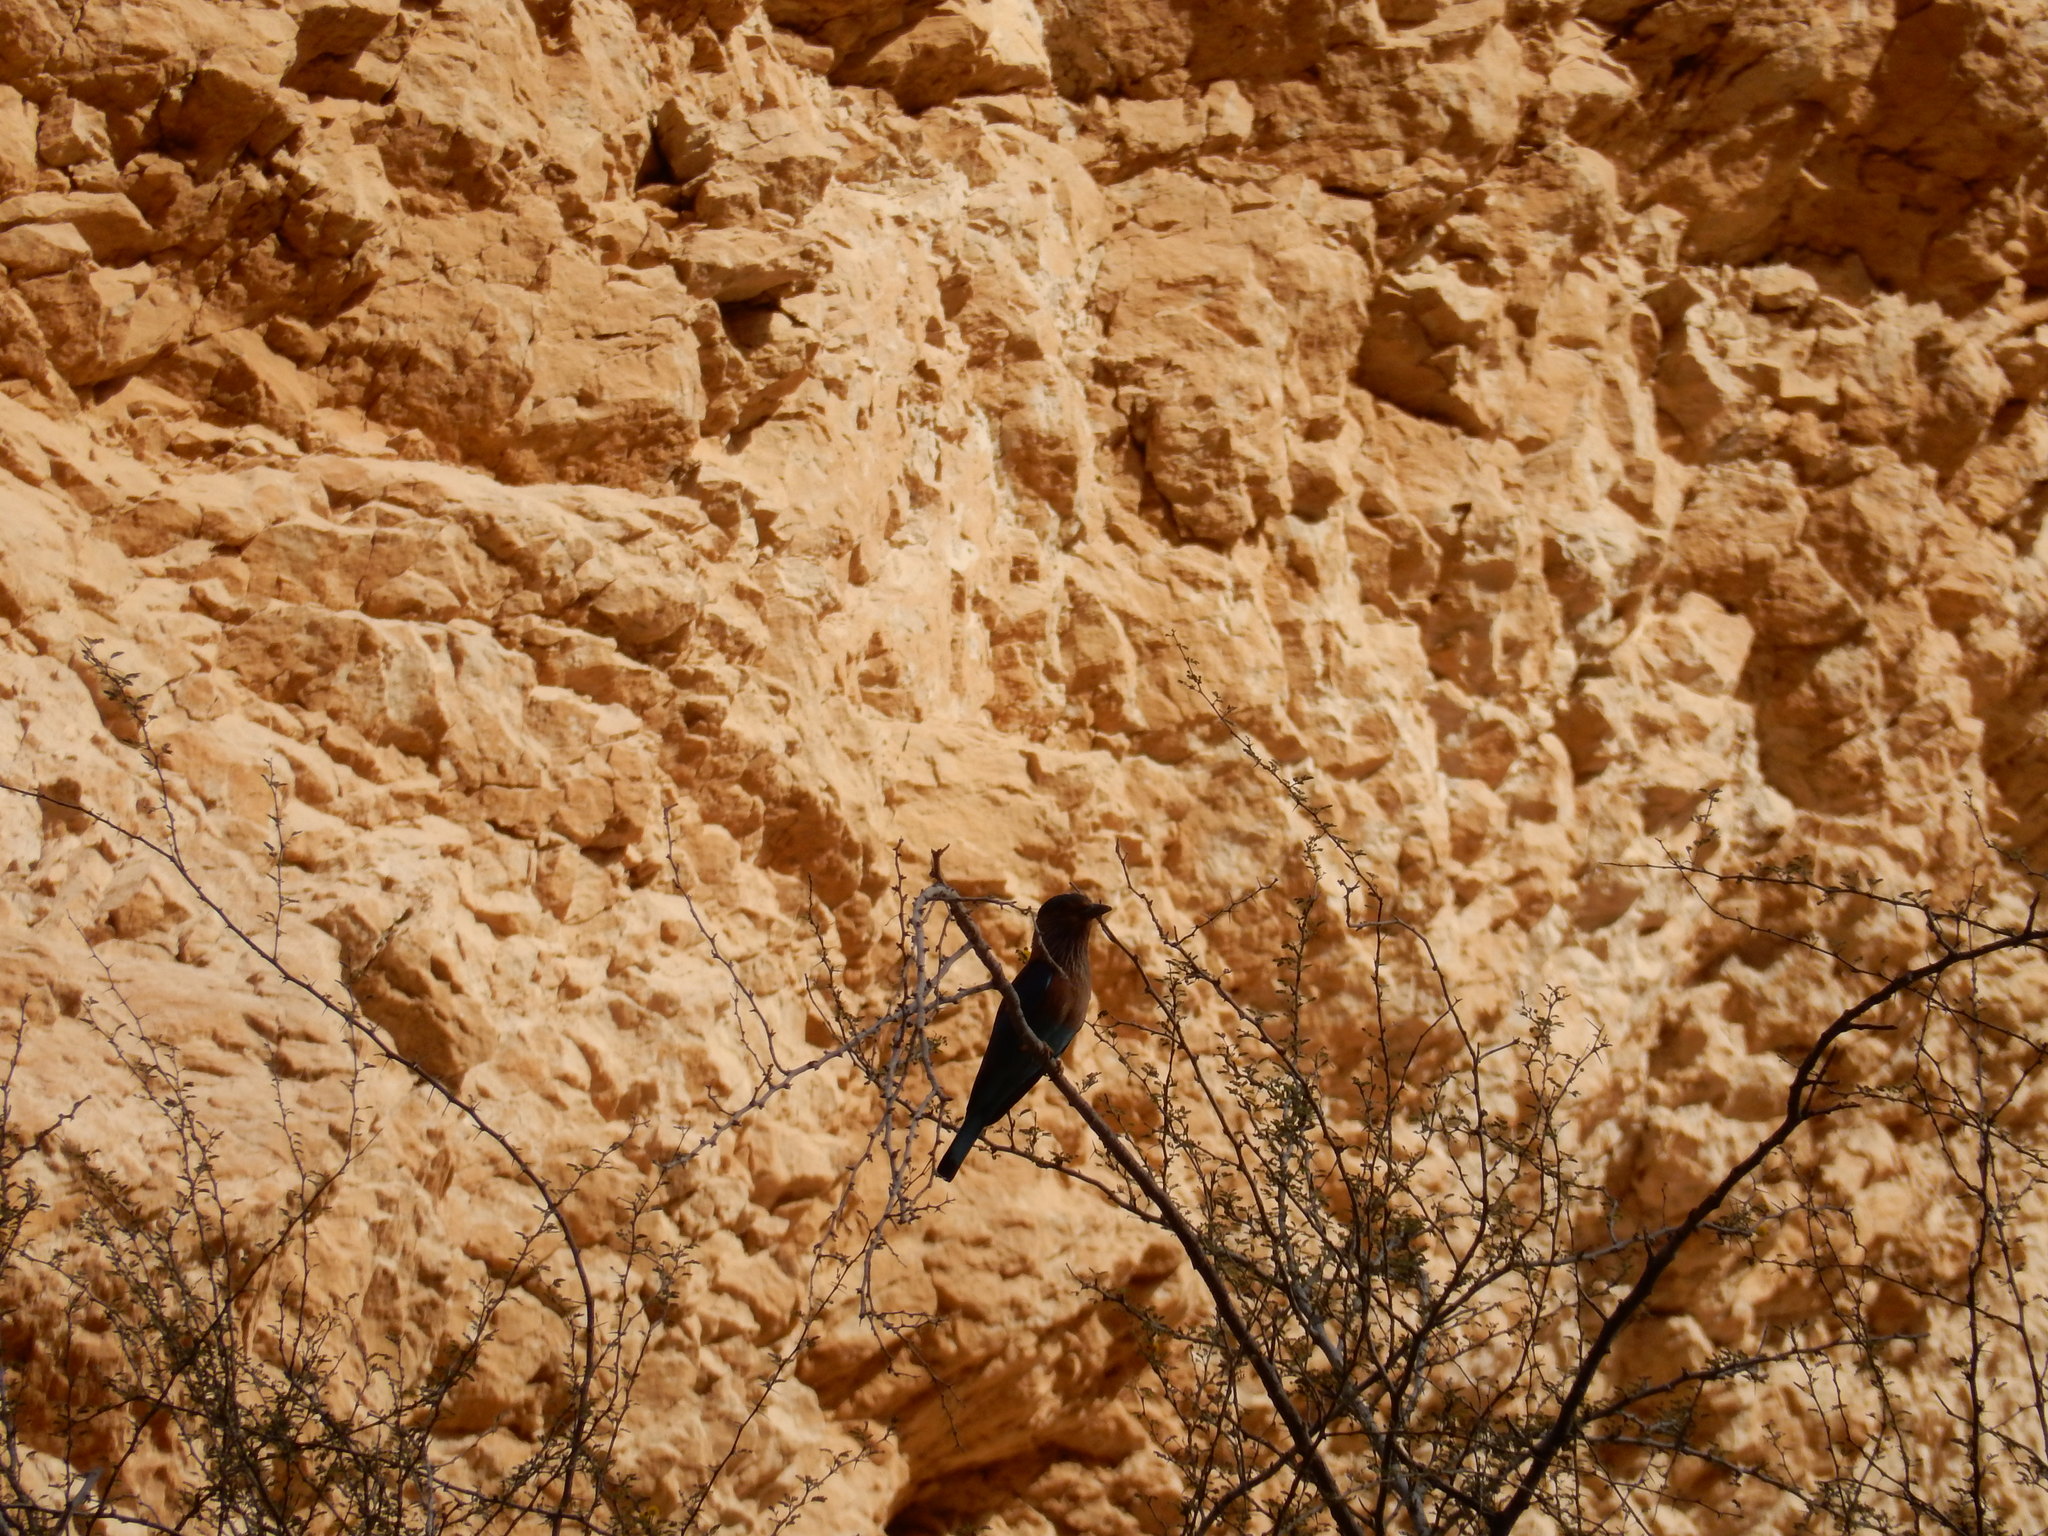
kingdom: Animalia
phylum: Chordata
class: Aves
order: Coraciiformes
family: Coraciidae
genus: Coracias
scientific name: Coracias benghalensis
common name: Indian roller
